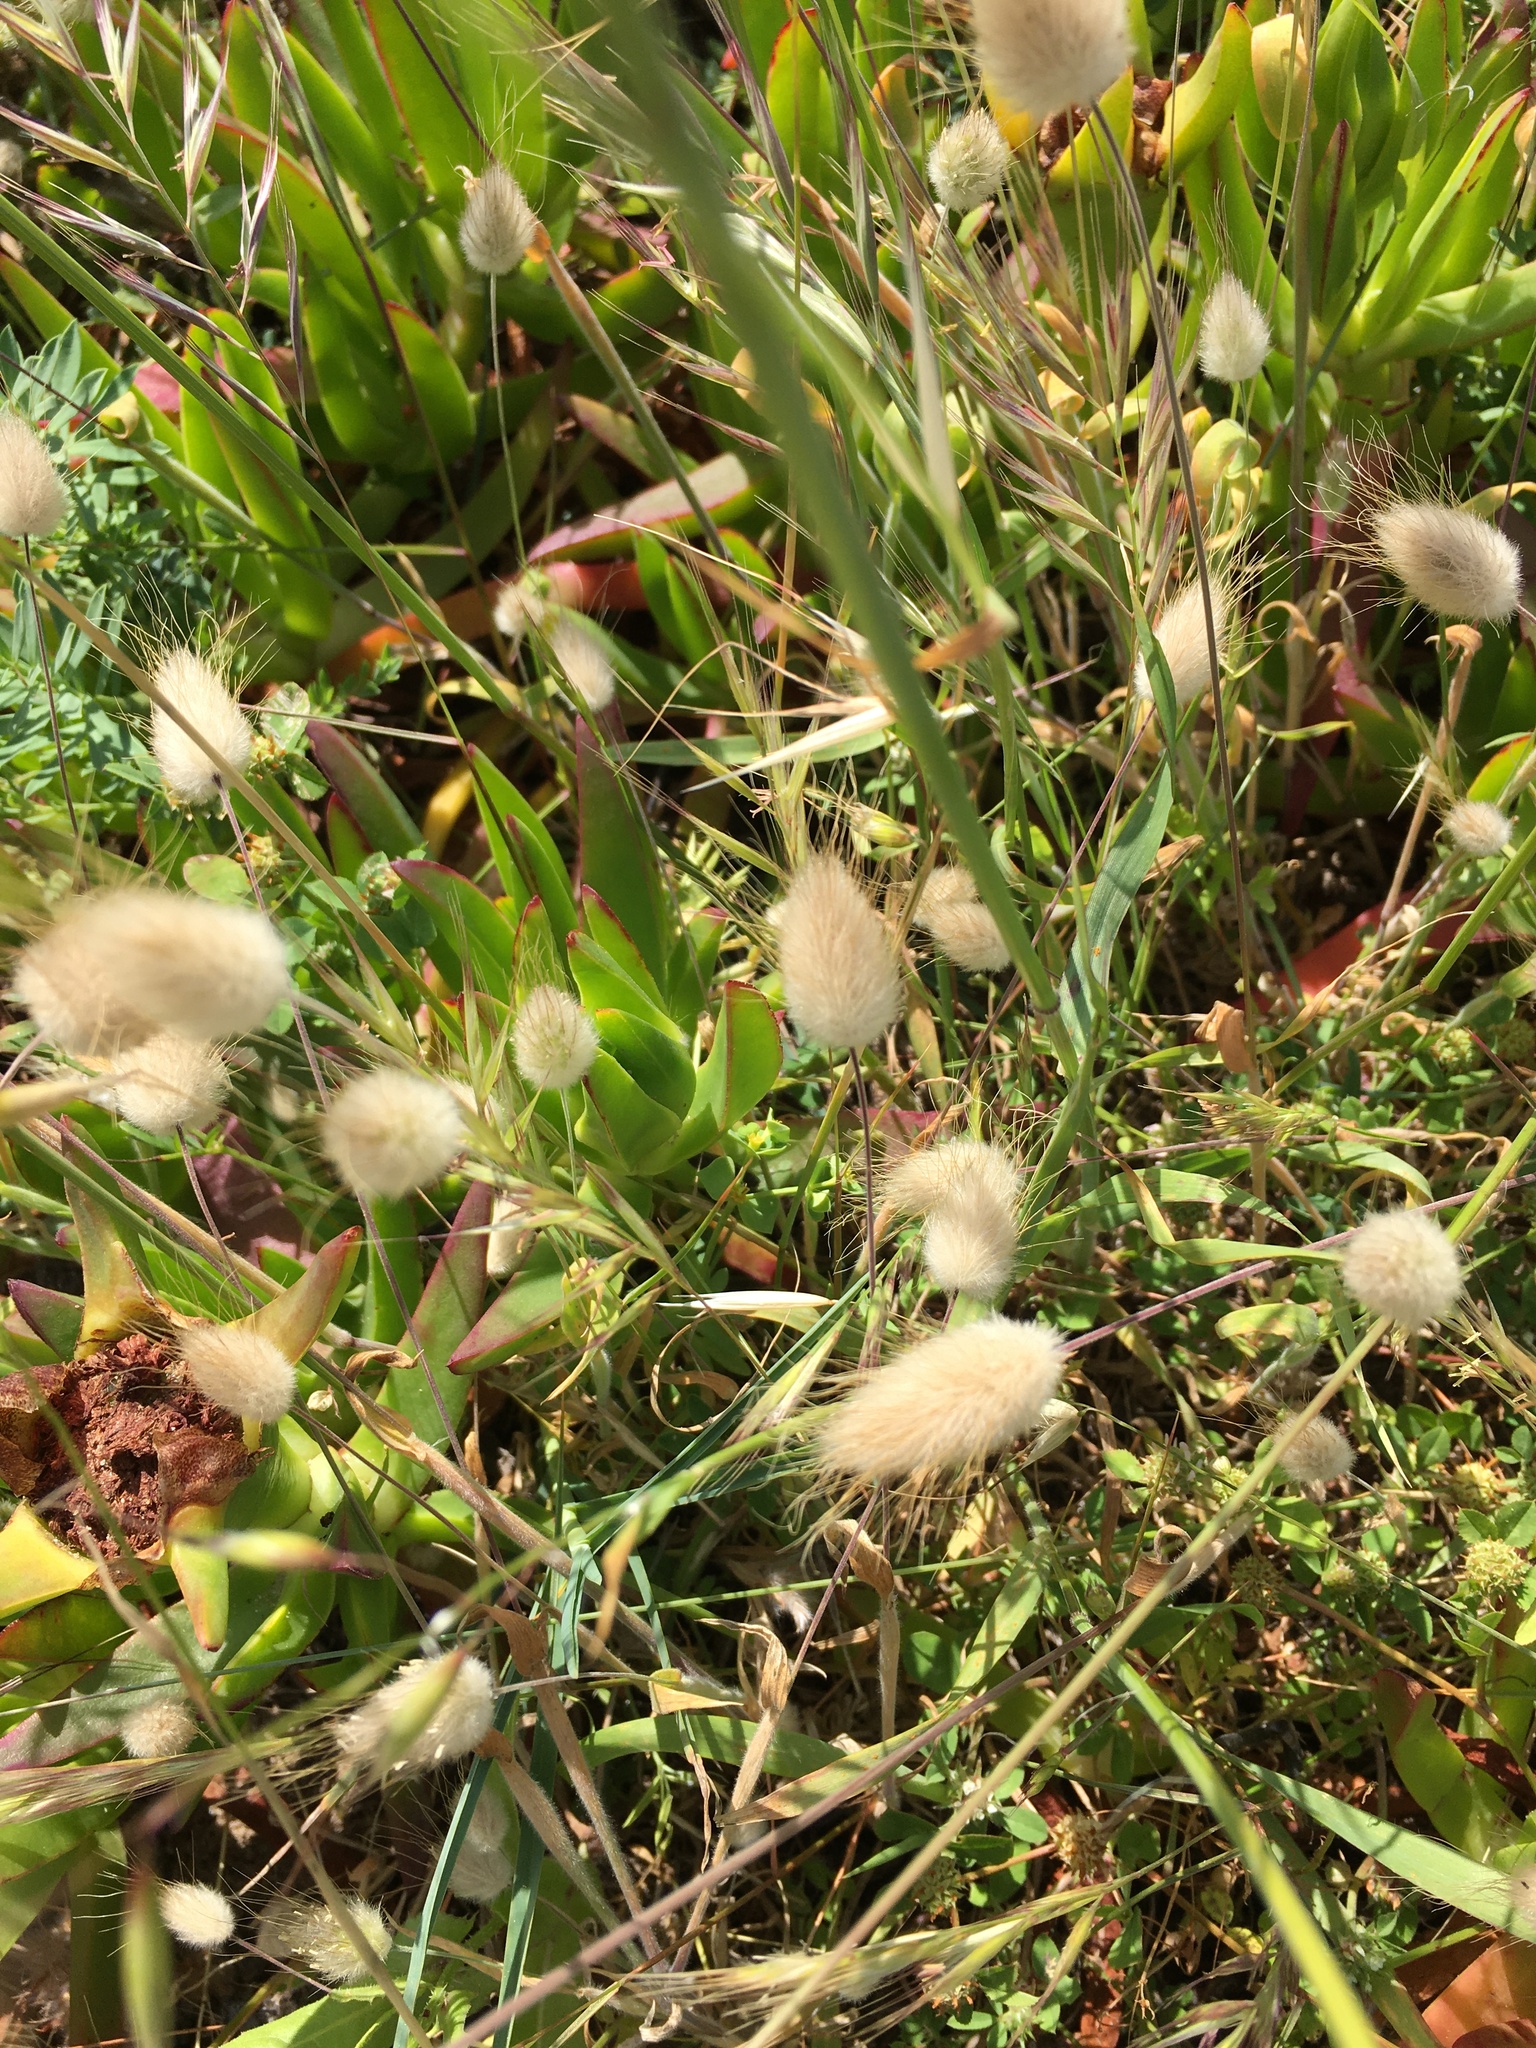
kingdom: Plantae
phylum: Tracheophyta
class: Liliopsida
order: Poales
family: Poaceae
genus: Lagurus
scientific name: Lagurus ovatus
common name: Hare's-tail
